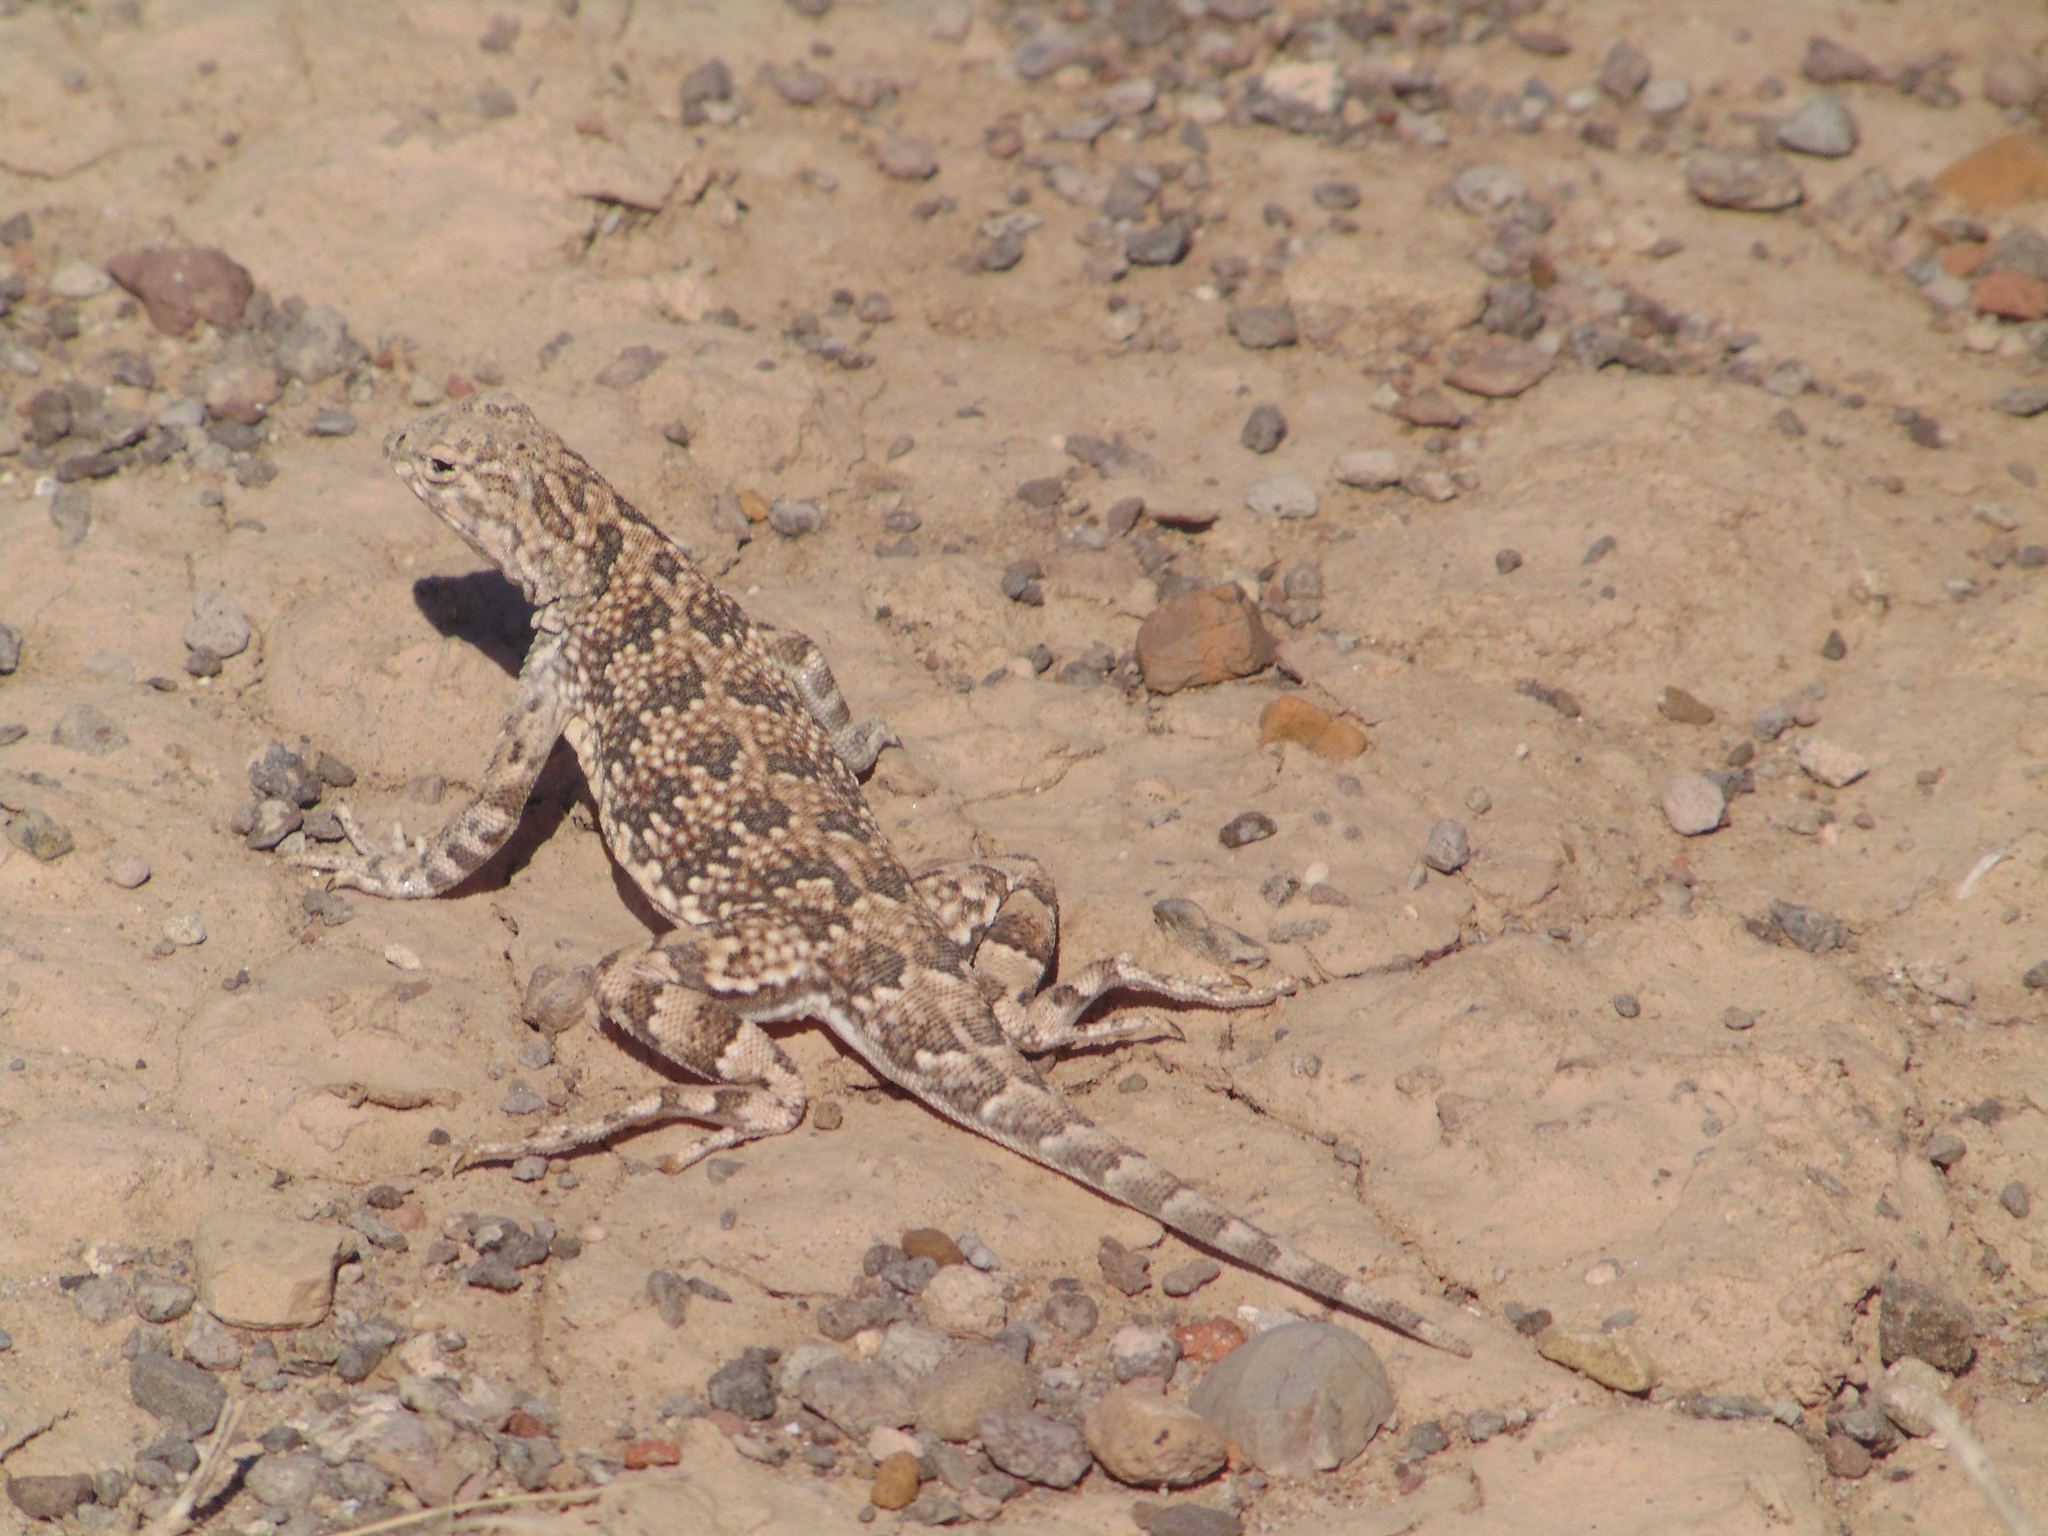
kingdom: Animalia
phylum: Chordata
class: Squamata
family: Phrynosomatidae
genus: Holbrookia
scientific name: Holbrookia maculata
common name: Lesser earless lizard
